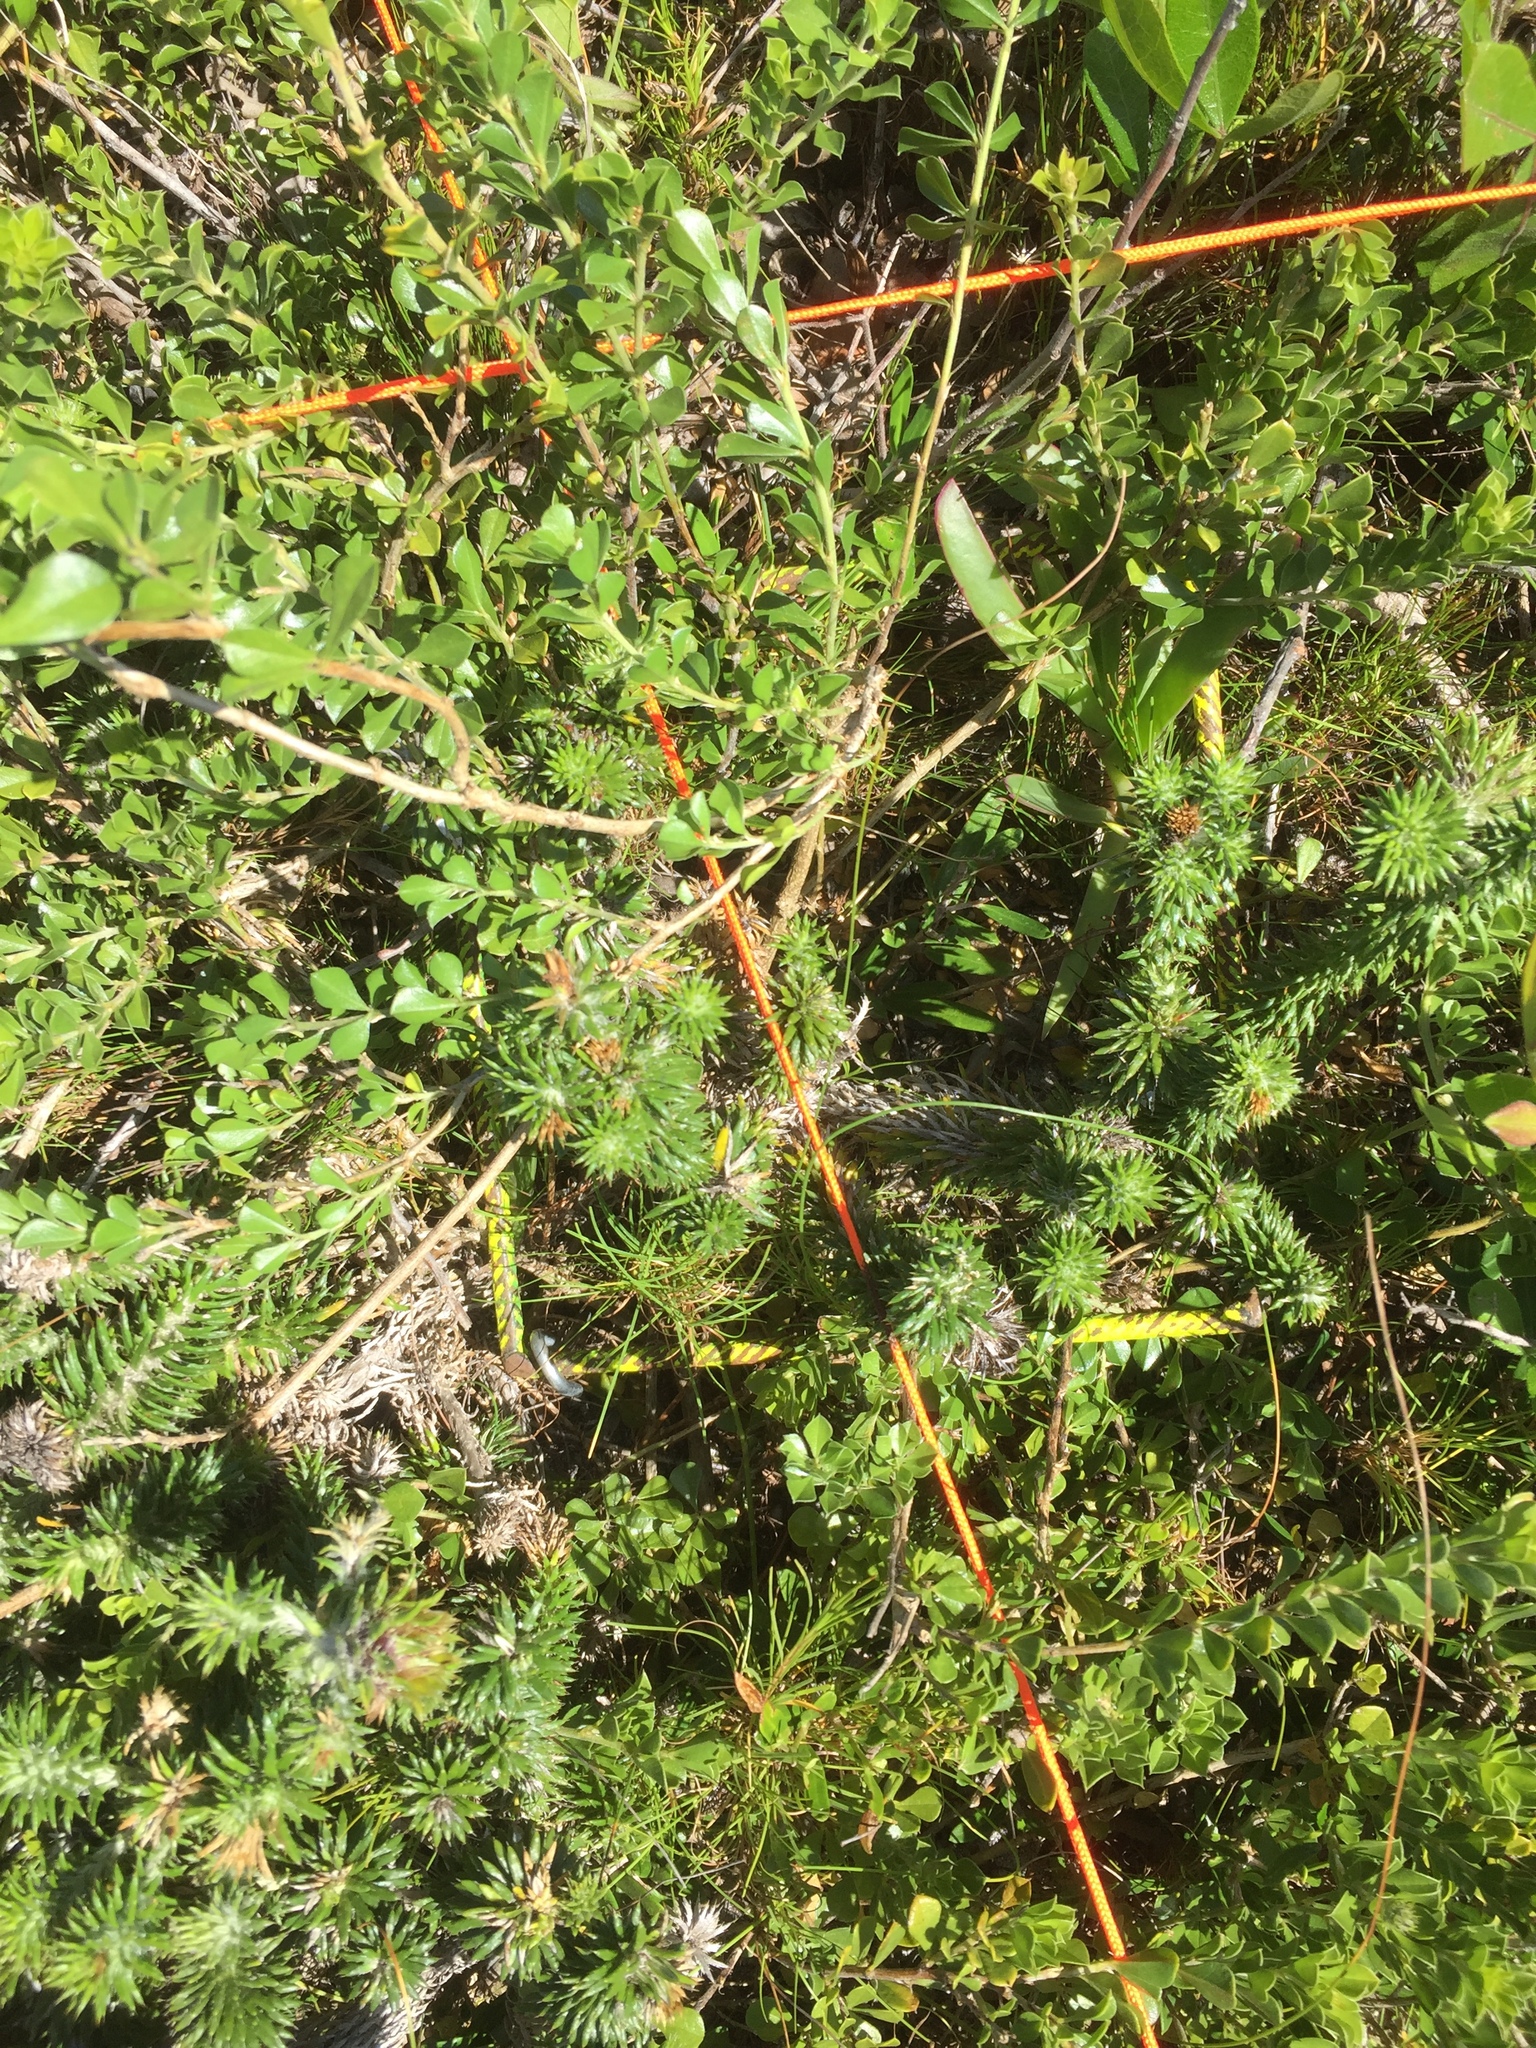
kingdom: Plantae
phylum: Tracheophyta
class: Magnoliopsida
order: Fabales
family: Fabaceae
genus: Psoralea
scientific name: Psoralea bracteolata
